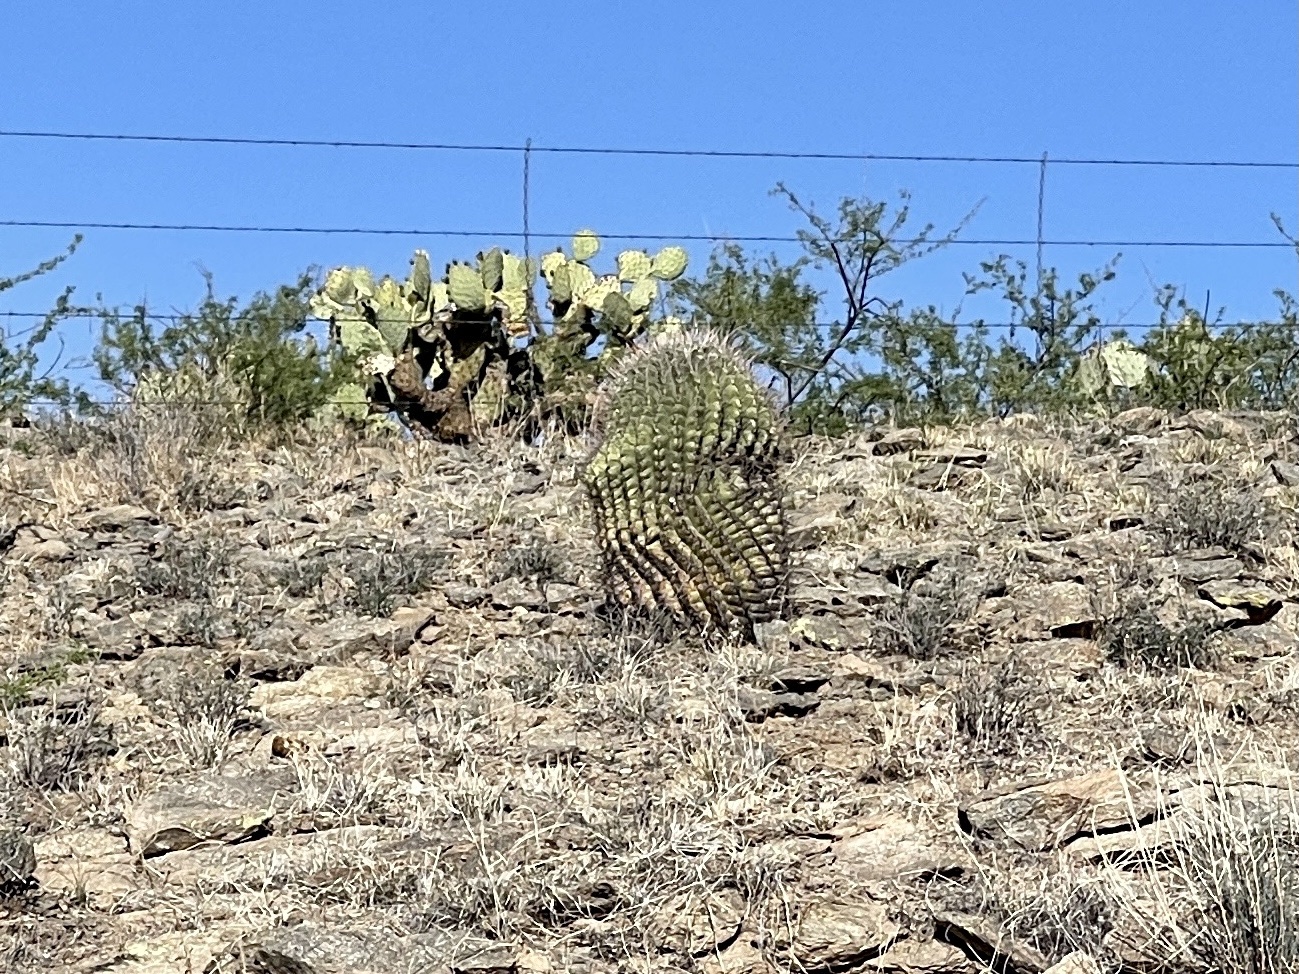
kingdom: Plantae
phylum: Tracheophyta
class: Magnoliopsida
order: Caryophyllales
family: Cactaceae
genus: Ferocactus
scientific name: Ferocactus wislizeni
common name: Candy barrel cactus
